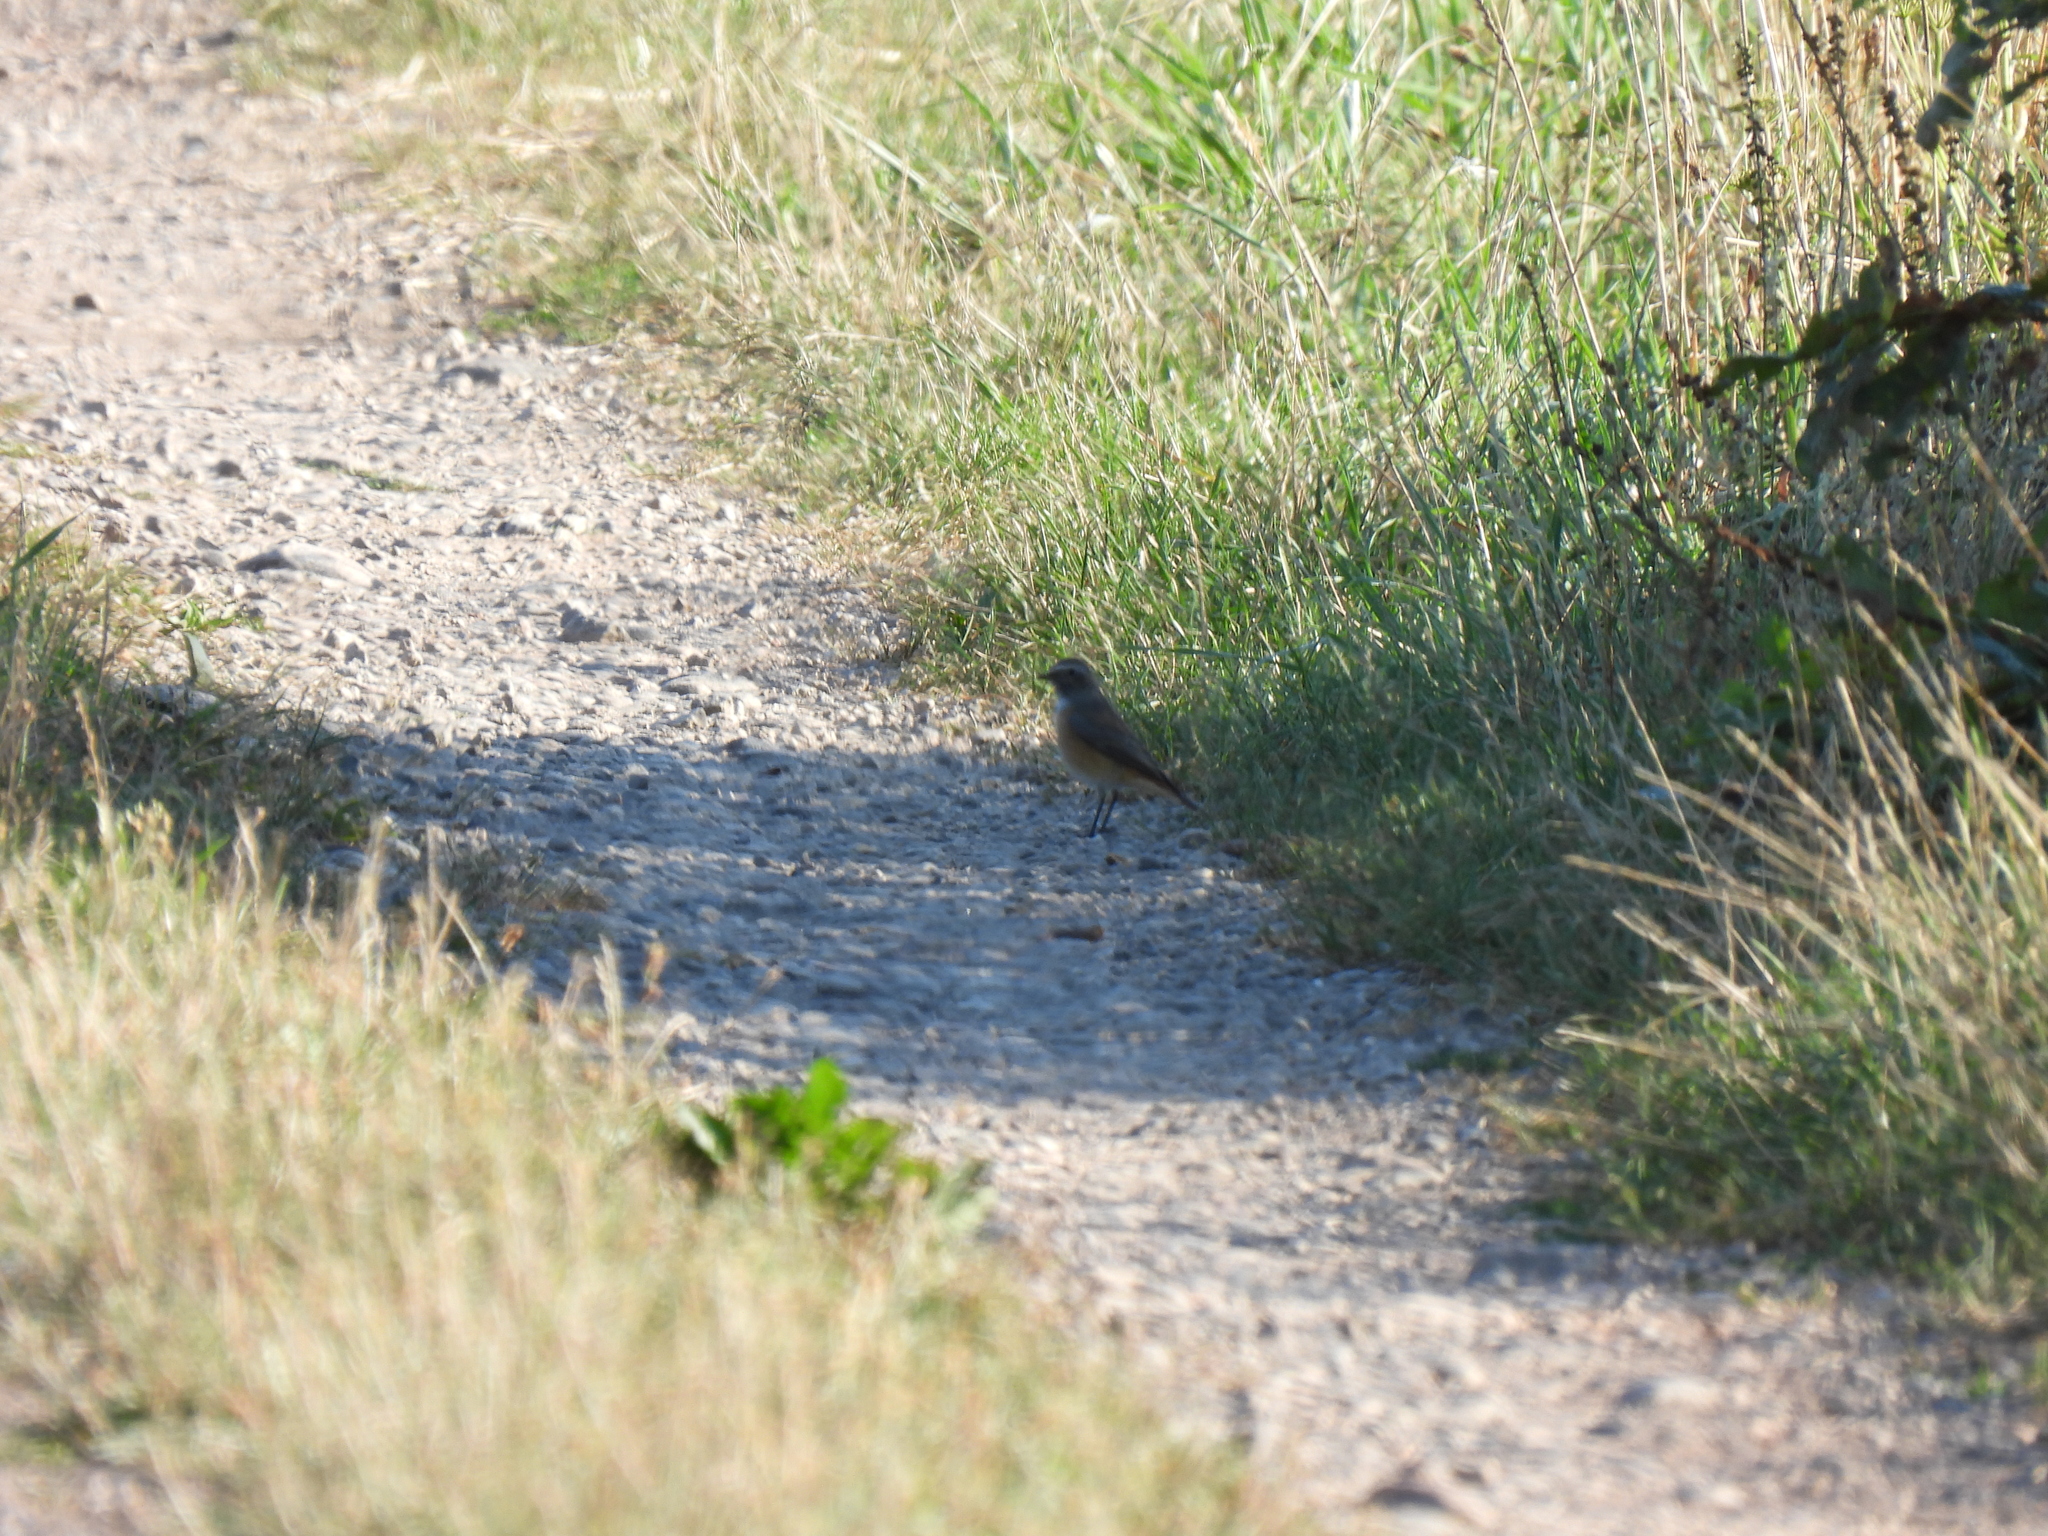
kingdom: Animalia
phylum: Chordata
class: Aves
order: Passeriformes
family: Muscicapidae
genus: Phoenicurus
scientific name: Phoenicurus phoenicurus
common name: Common redstart
